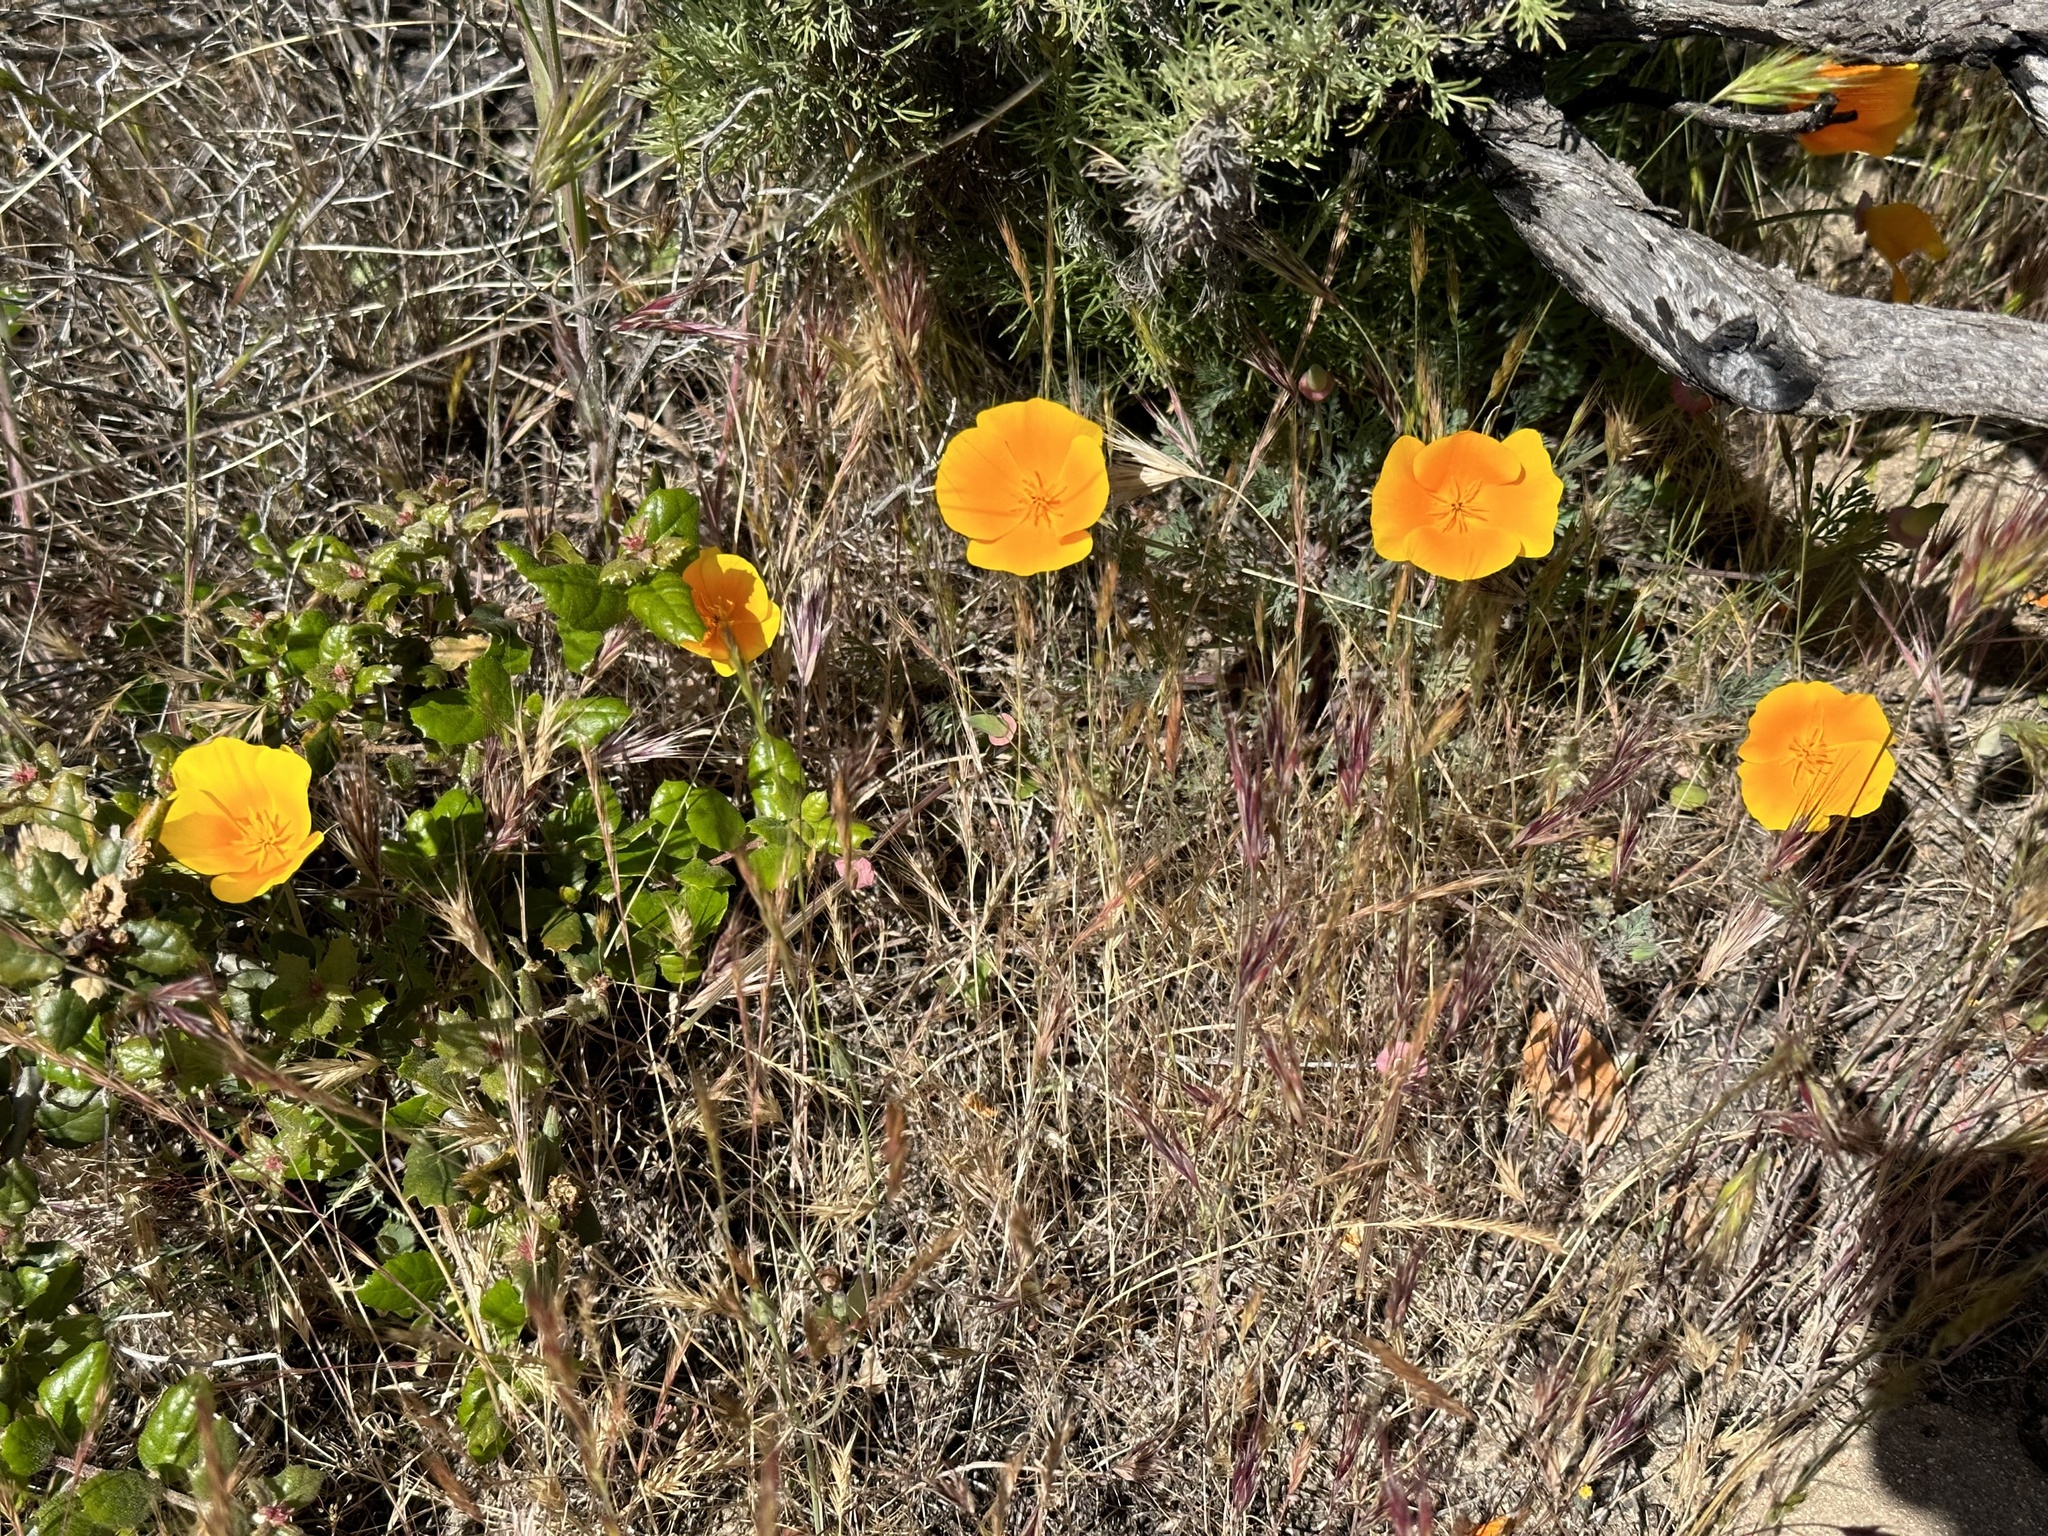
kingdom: Plantae
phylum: Tracheophyta
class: Magnoliopsida
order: Ranunculales
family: Papaveraceae
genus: Eschscholzia
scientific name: Eschscholzia californica
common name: California poppy
